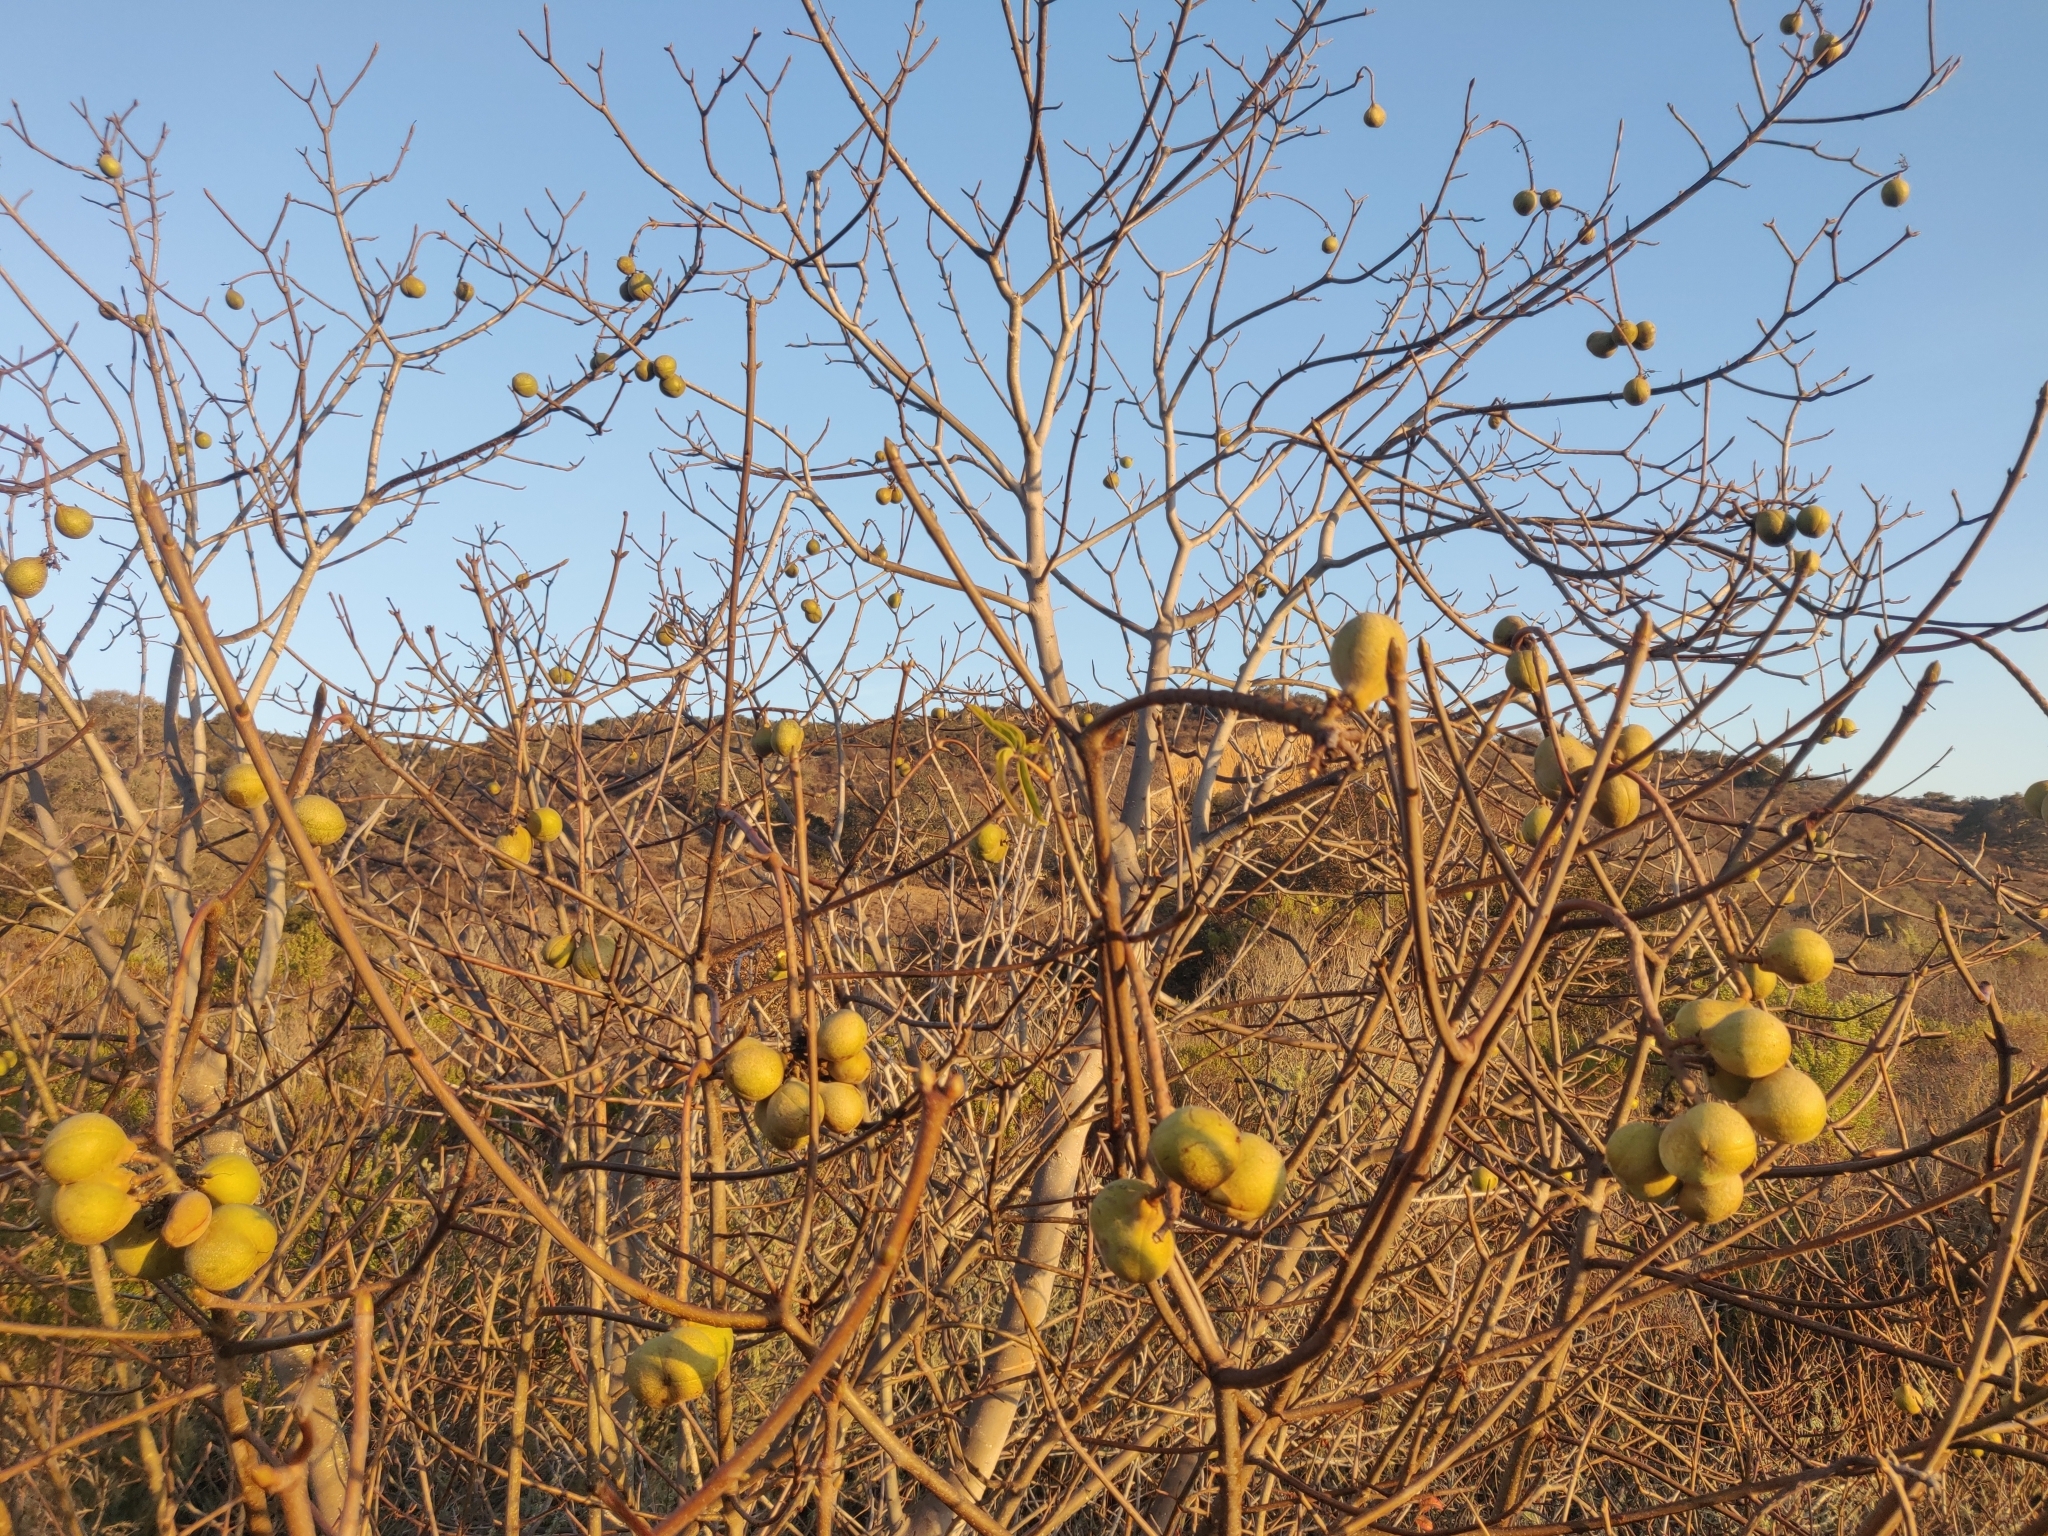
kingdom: Plantae
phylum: Tracheophyta
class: Magnoliopsida
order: Sapindales
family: Sapindaceae
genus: Aesculus
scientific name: Aesculus californica
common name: California buckeye
